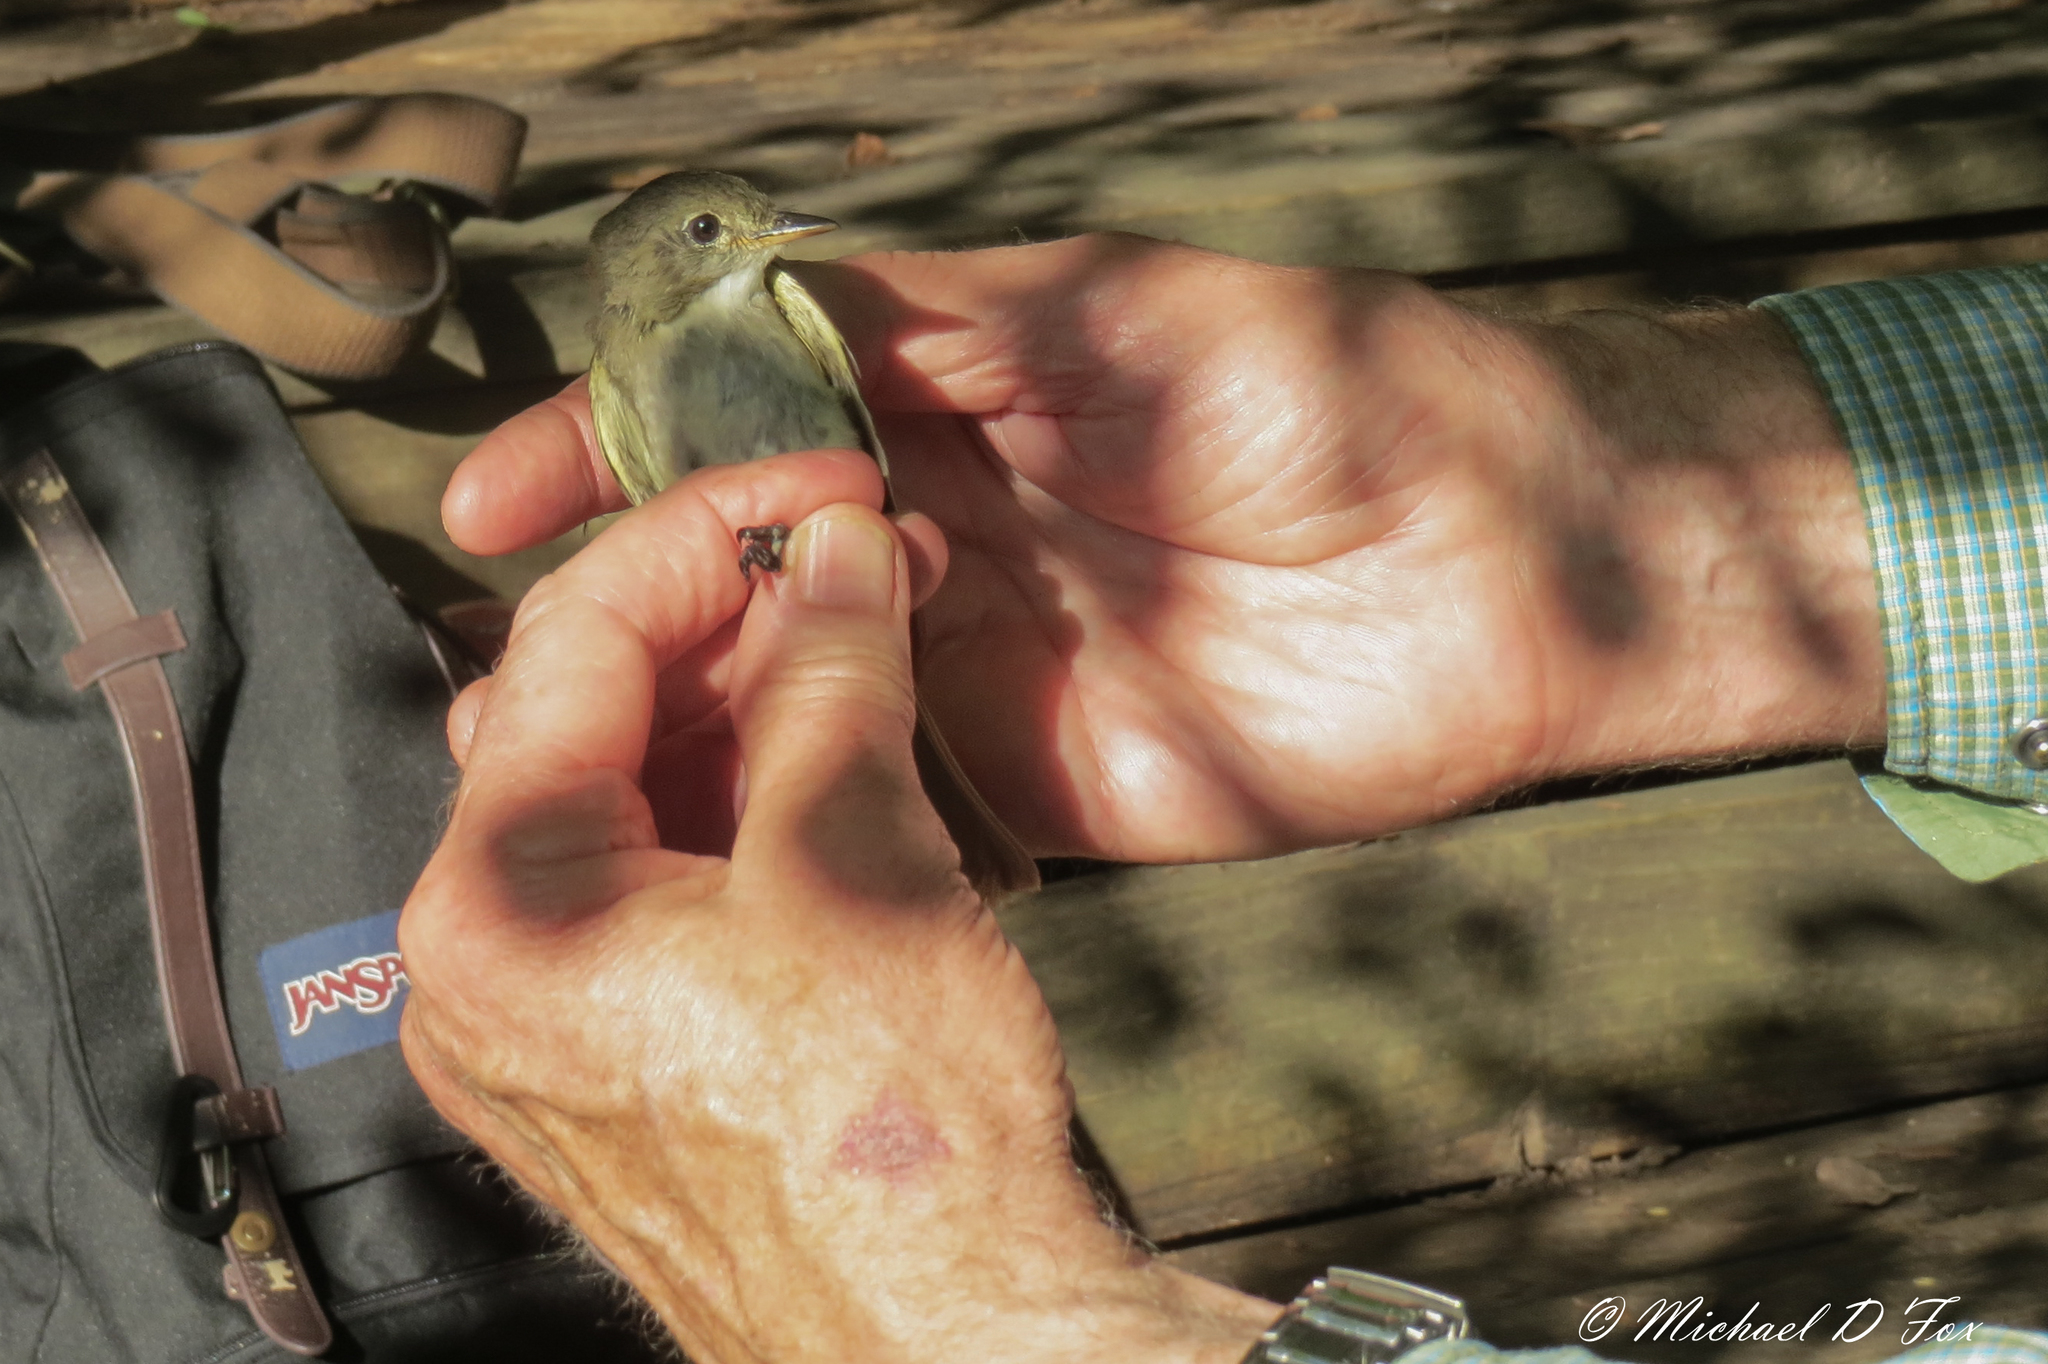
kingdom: Animalia
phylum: Chordata
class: Aves
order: Passeriformes
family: Tyrannidae
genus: Empidonax
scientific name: Empidonax virescens
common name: Acadian flycatcher
